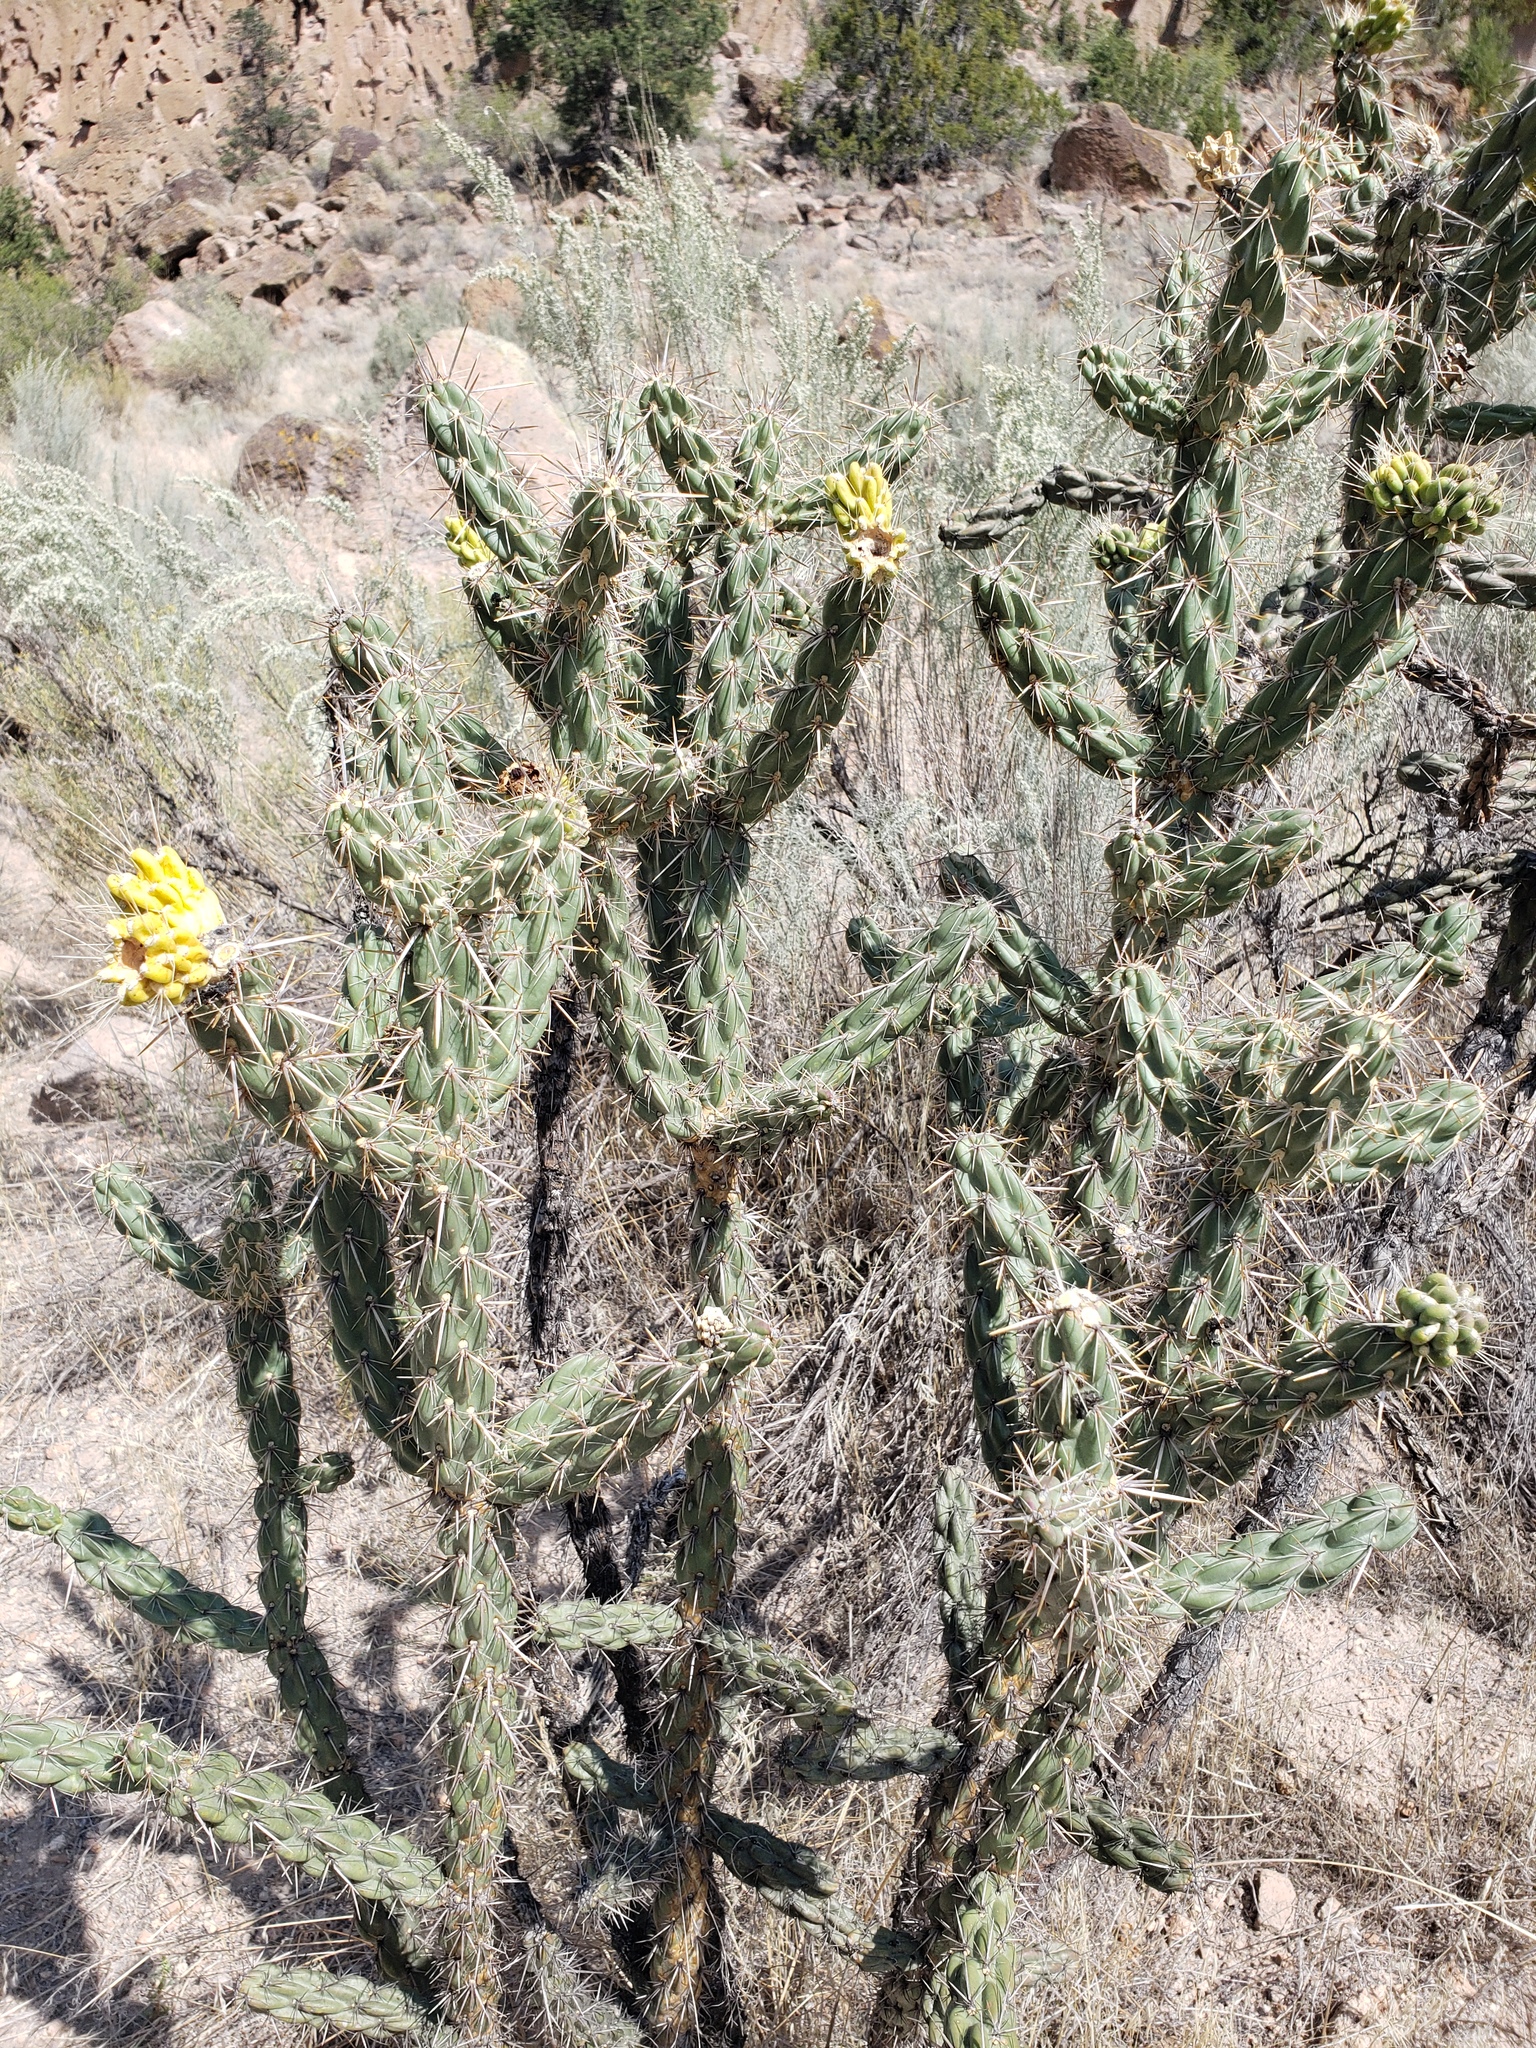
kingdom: Plantae
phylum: Tracheophyta
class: Magnoliopsida
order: Caryophyllales
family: Cactaceae
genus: Cylindropuntia
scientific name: Cylindropuntia imbricata
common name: Candelabrum cactus
